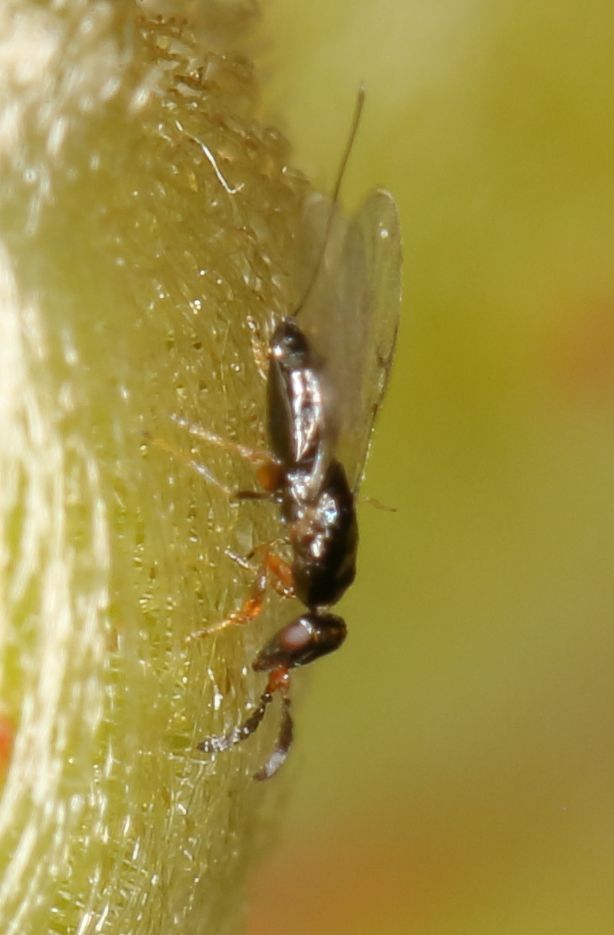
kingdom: Animalia
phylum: Arthropoda
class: Insecta
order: Hymenoptera
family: Agaonidae
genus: Elisabethiella
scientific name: Elisabethiella stueckenbergi
